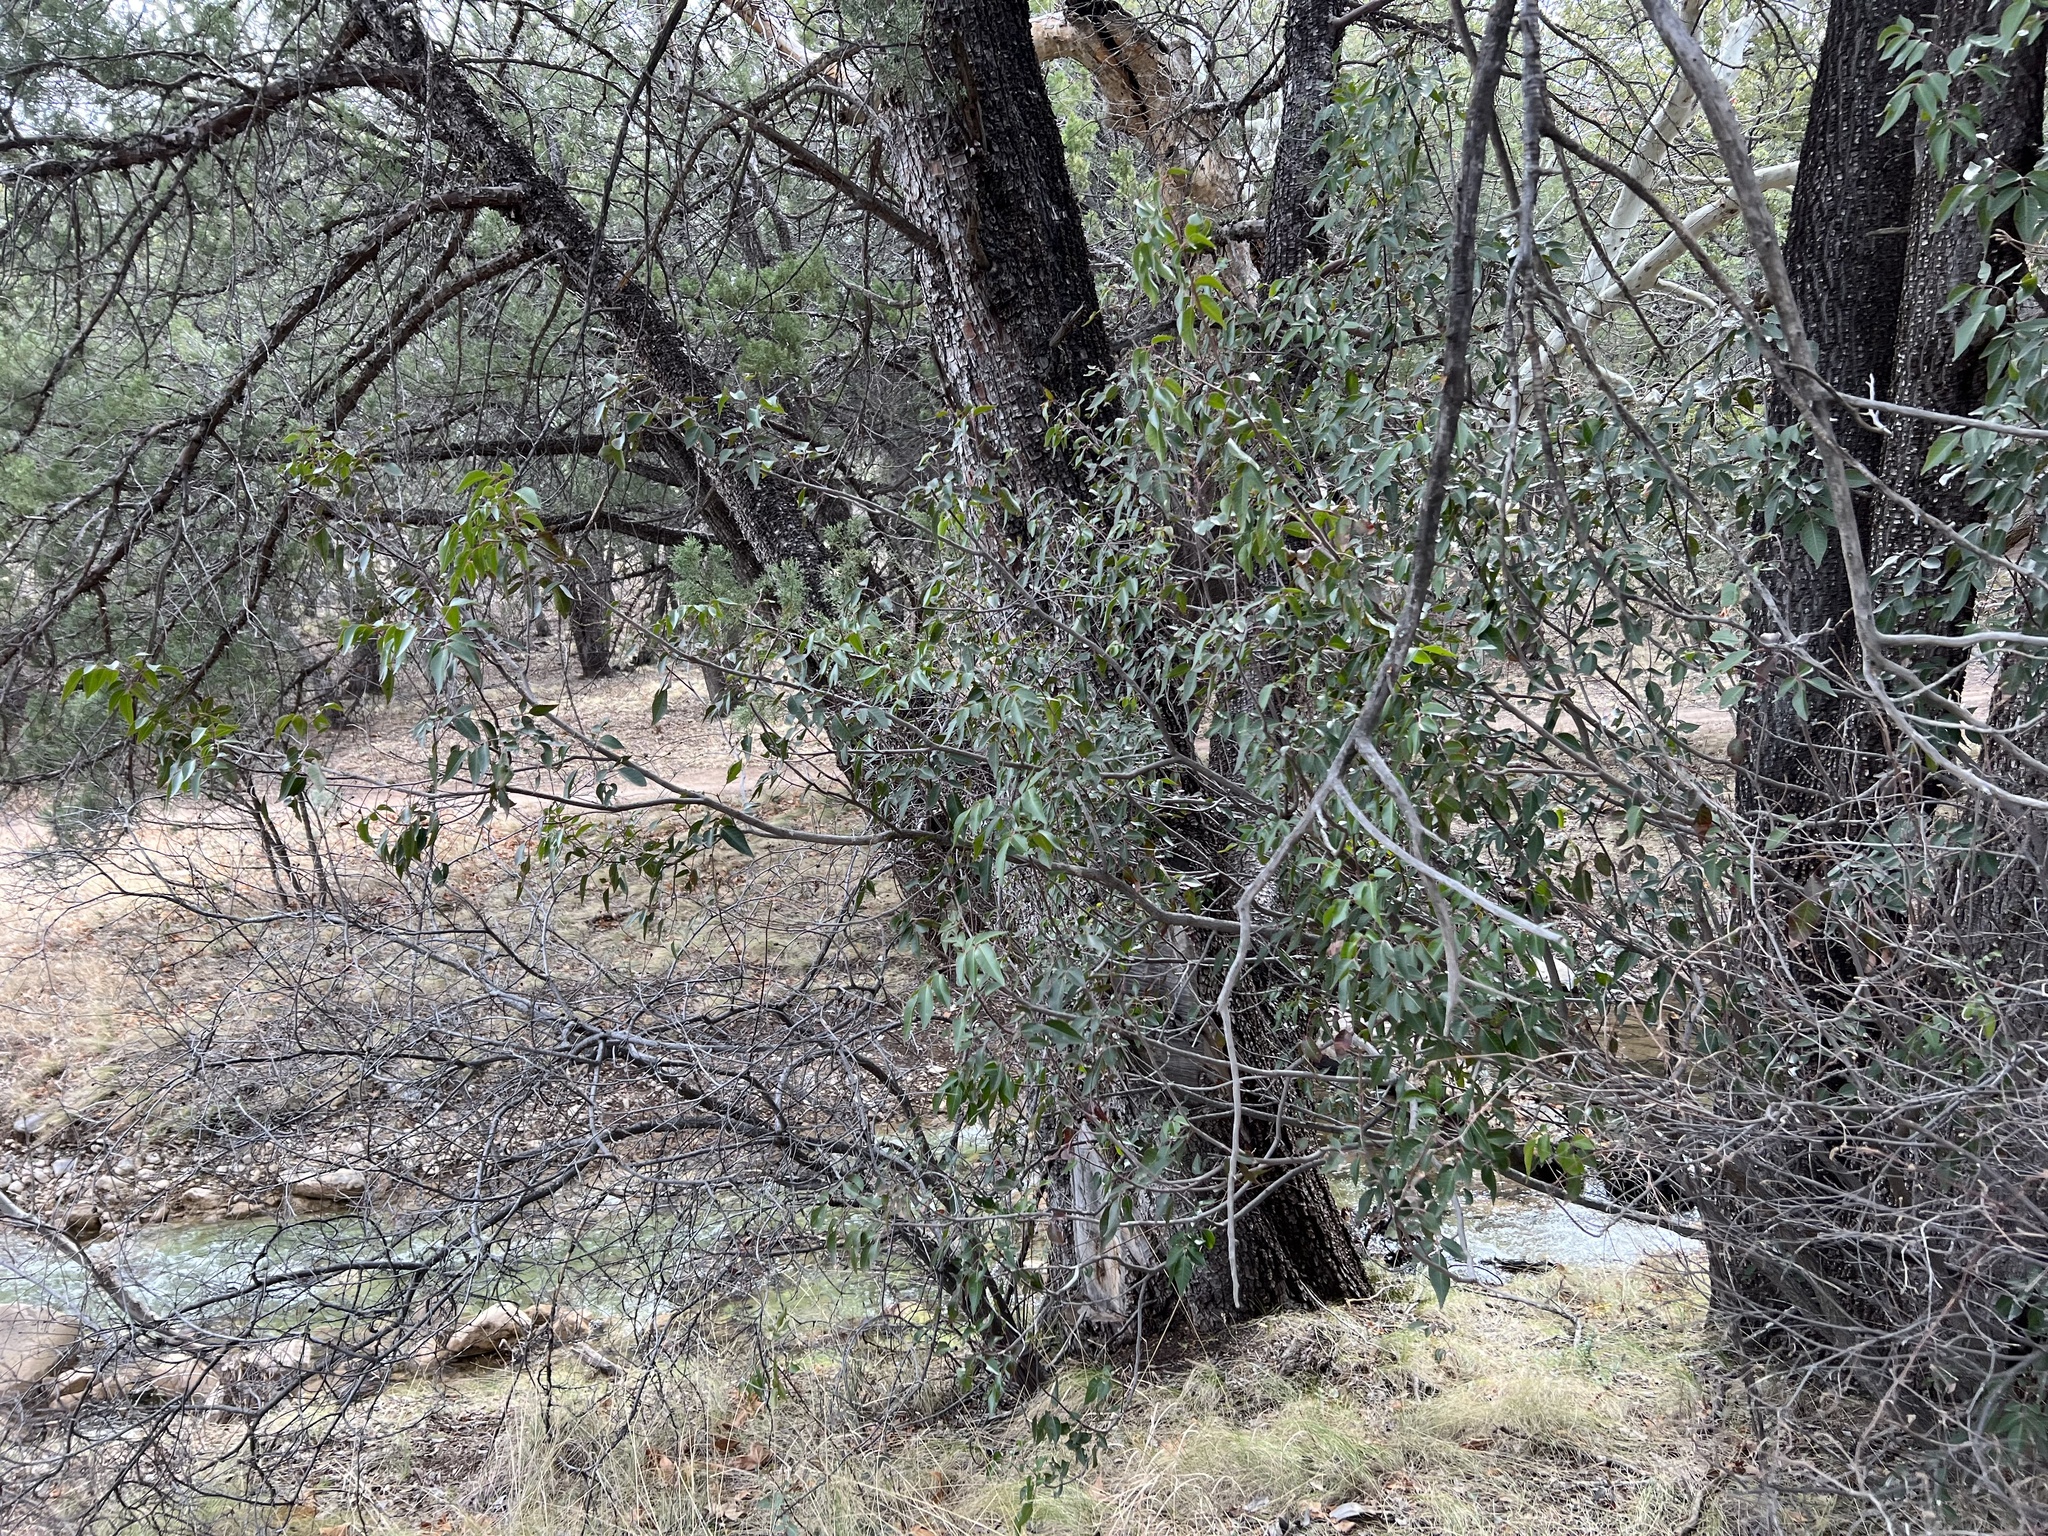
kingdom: Plantae
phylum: Tracheophyta
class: Magnoliopsida
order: Sapindales
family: Anacardiaceae
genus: Rhus
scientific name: Rhus virens
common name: Evergreen sumac
